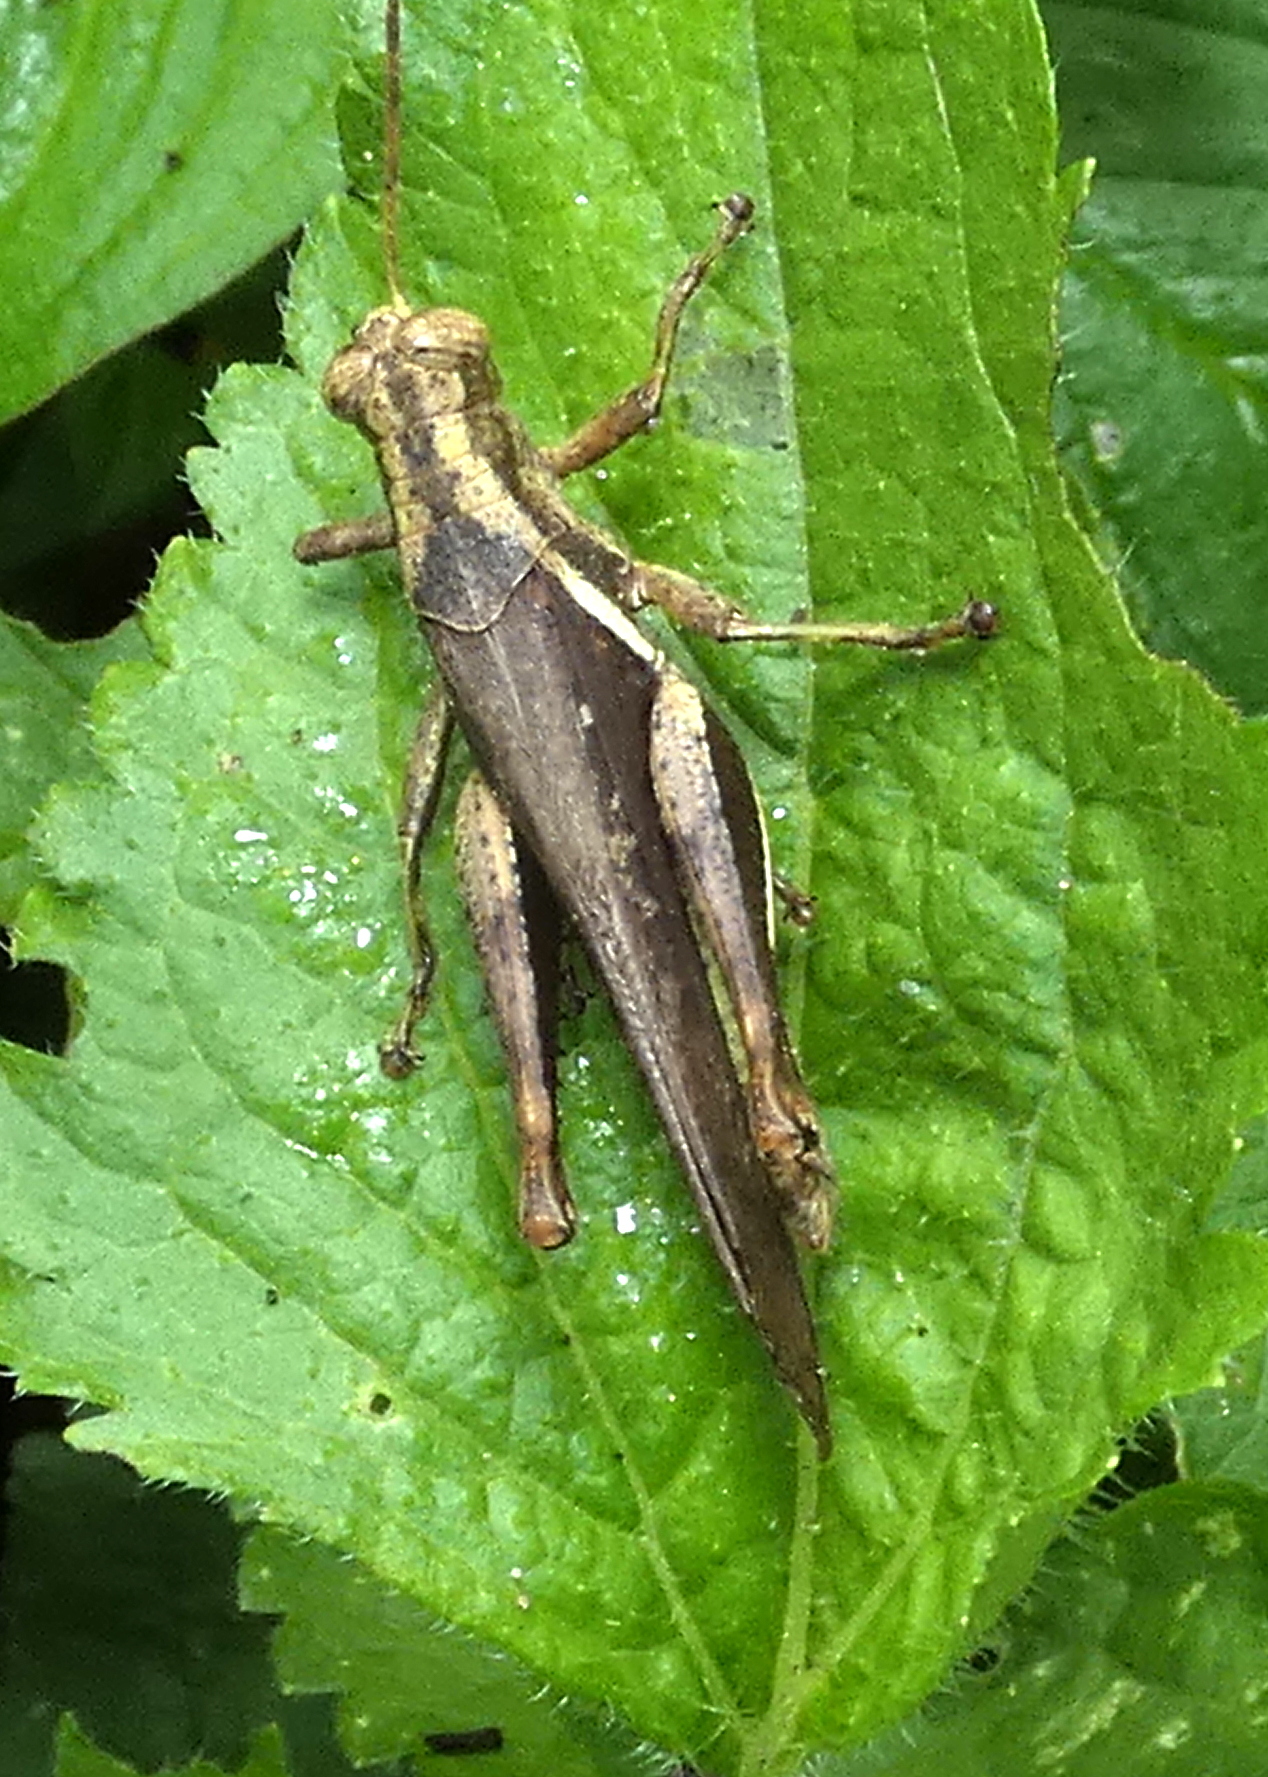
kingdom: Animalia
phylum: Arthropoda
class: Insecta
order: Orthoptera
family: Acrididae
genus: Abracris
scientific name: Abracris flavolineata
